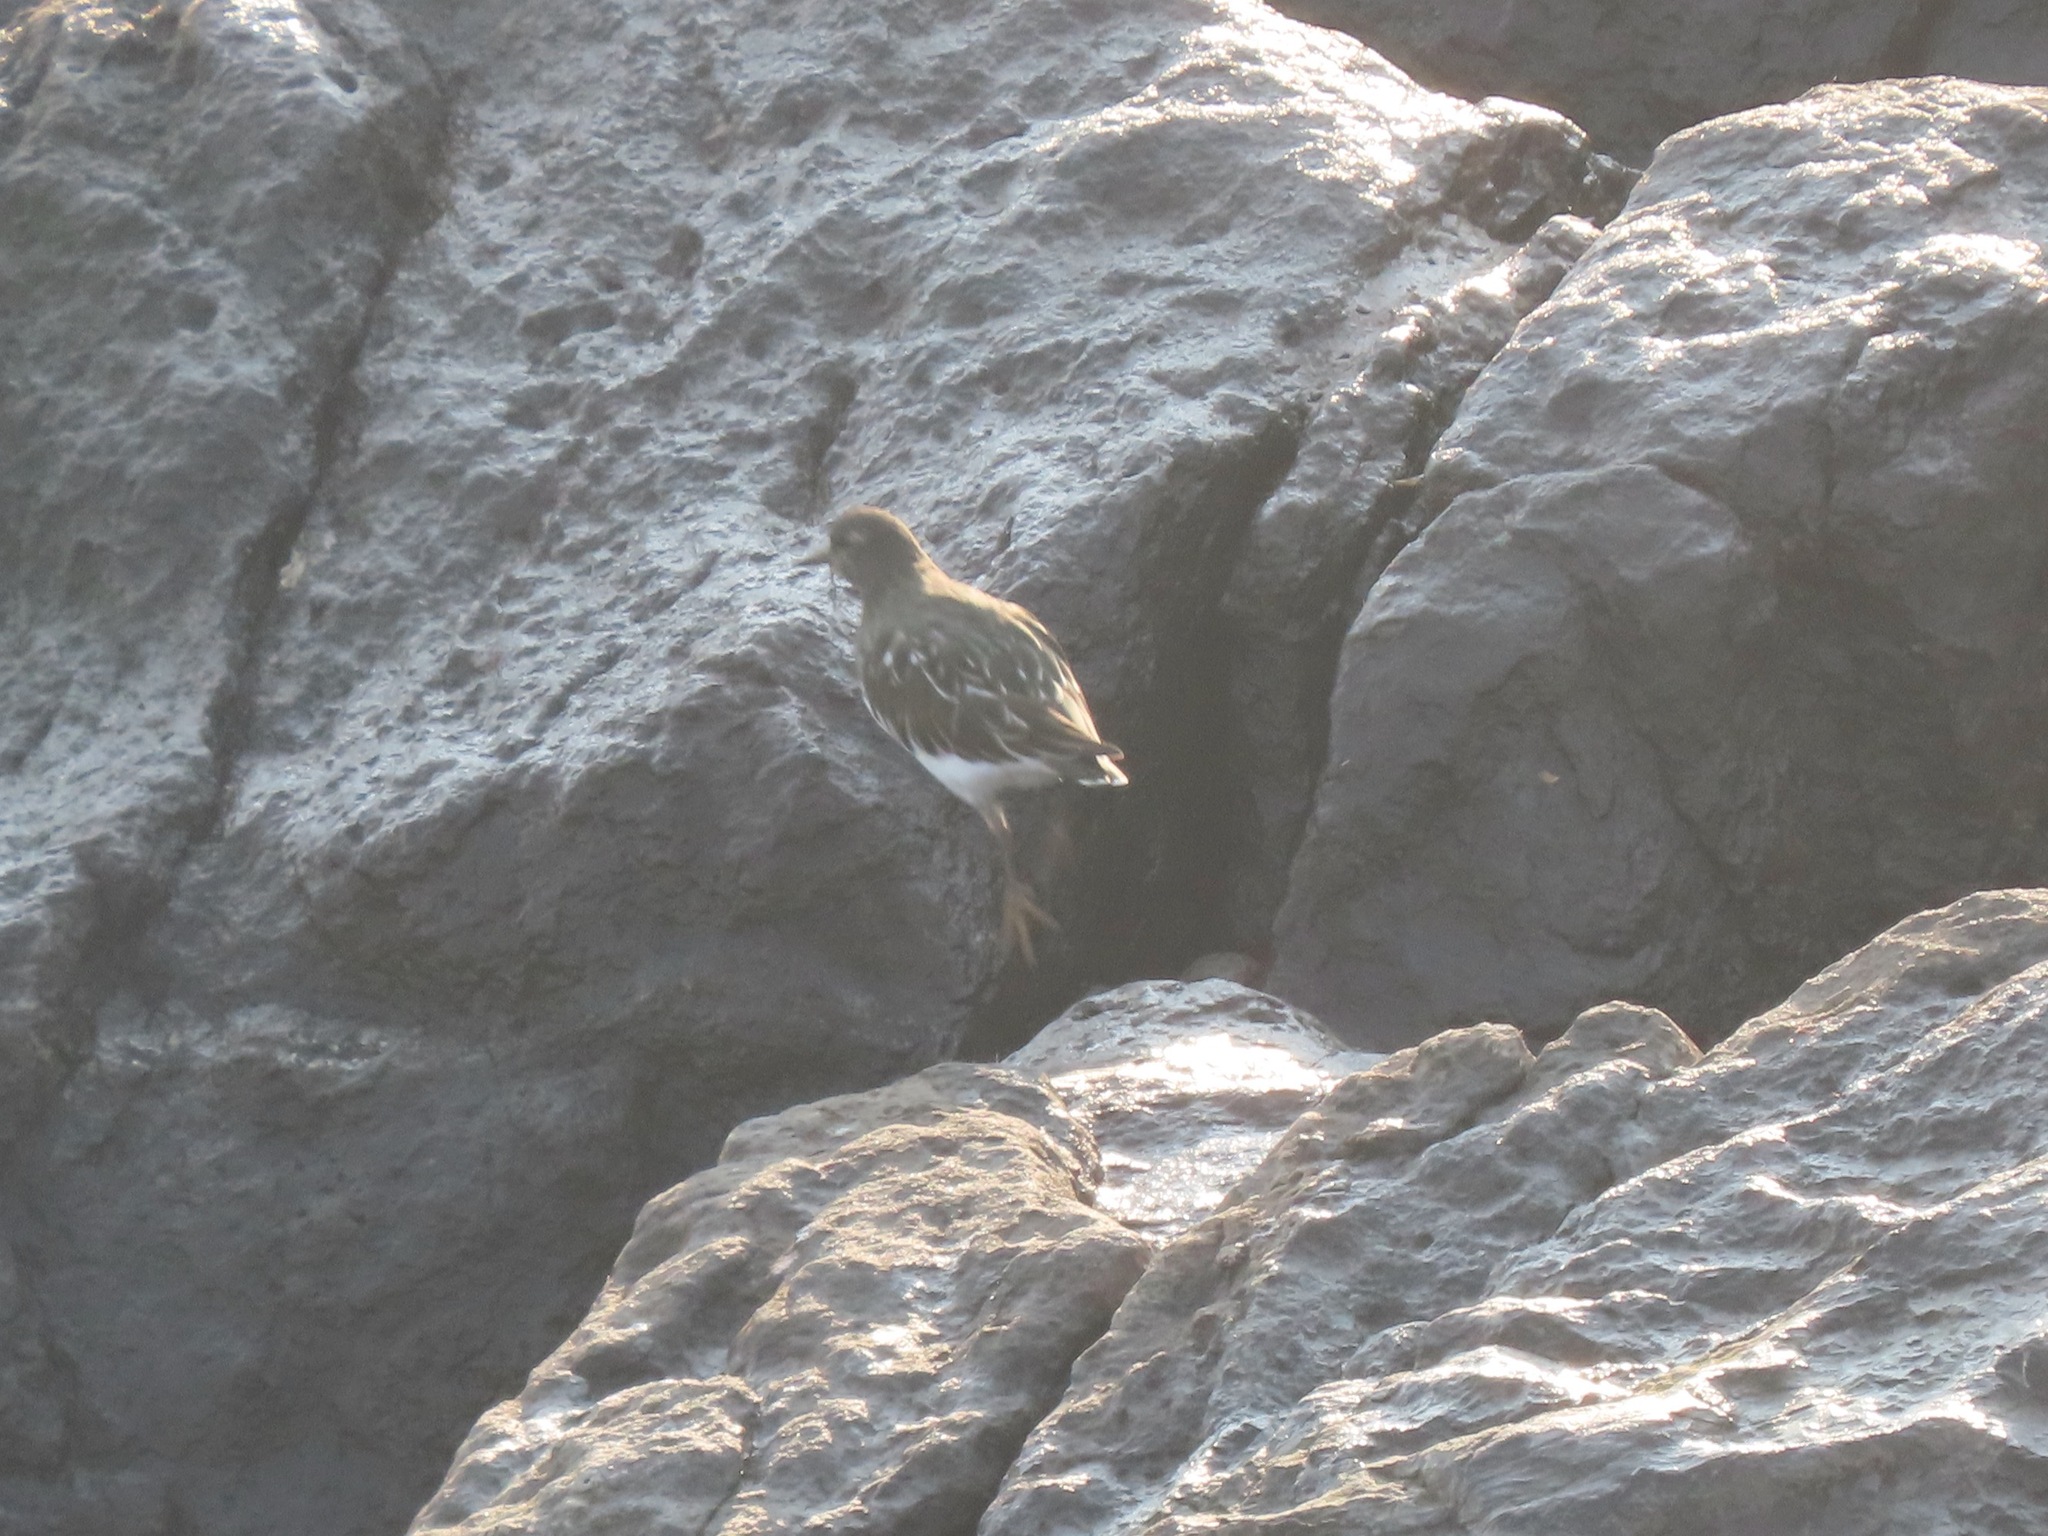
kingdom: Animalia
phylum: Chordata
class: Aves
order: Charadriiformes
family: Scolopacidae
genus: Arenaria
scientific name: Arenaria melanocephala
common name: Black turnstone
